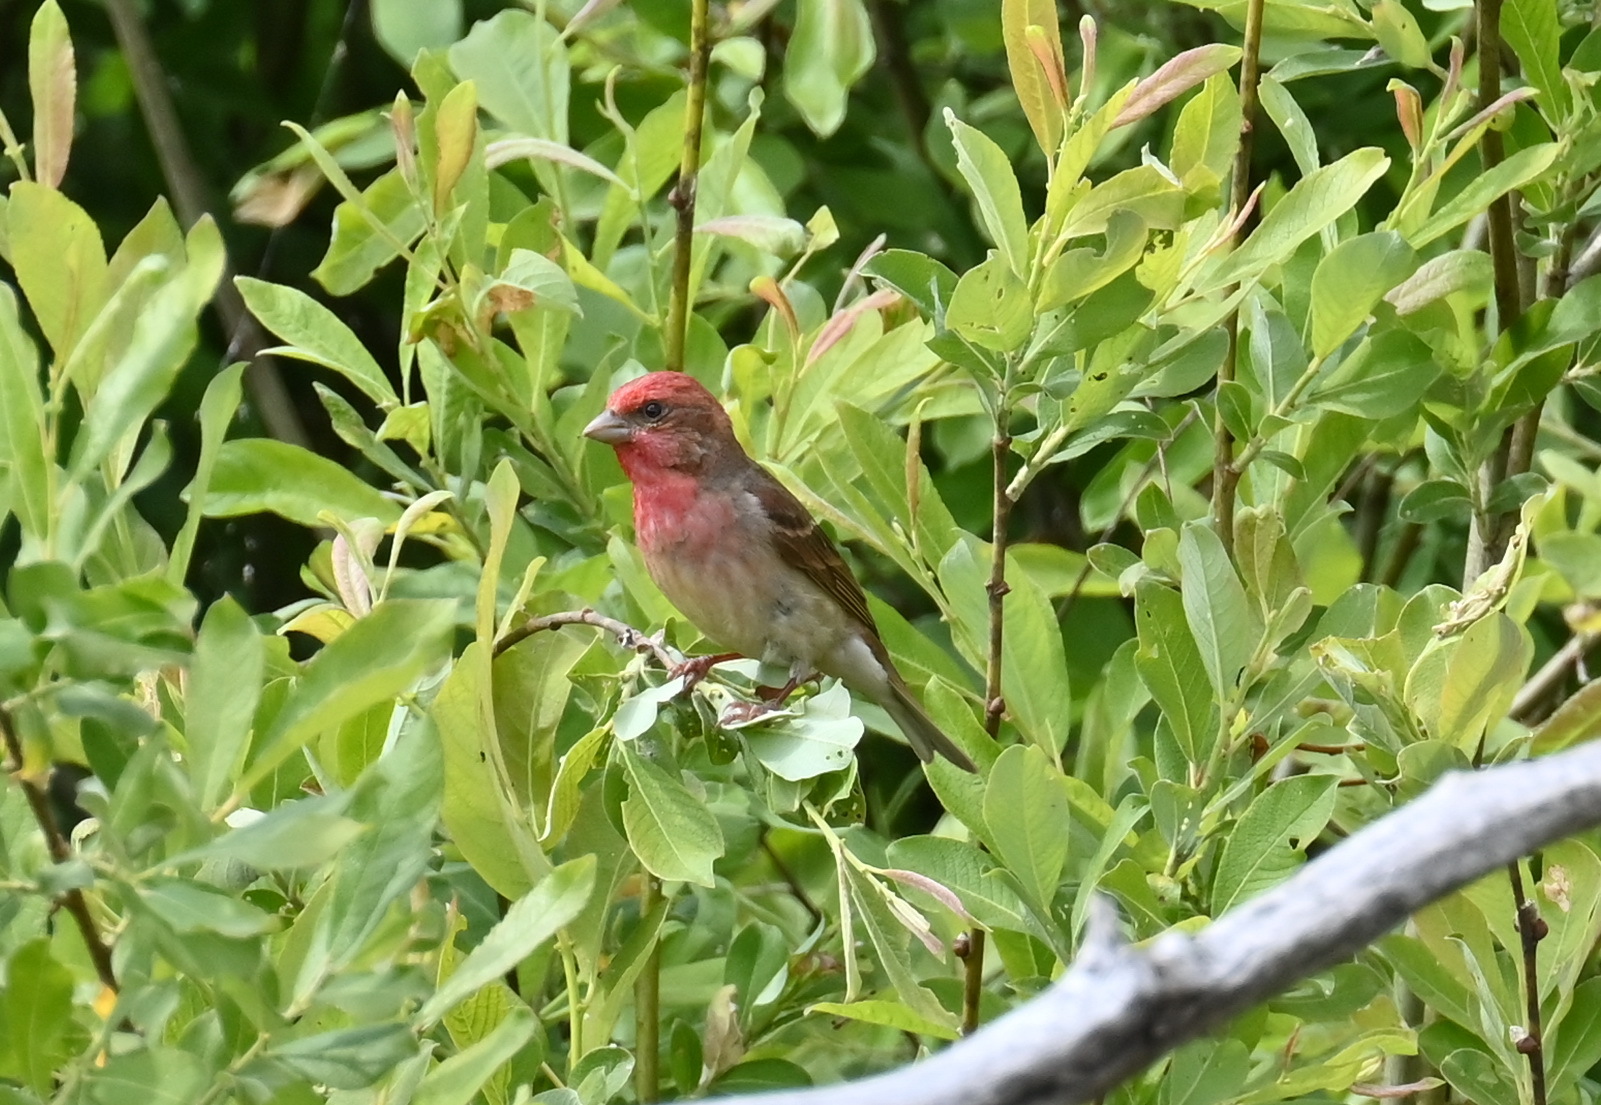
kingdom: Animalia
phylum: Chordata
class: Aves
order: Passeriformes
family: Fringillidae
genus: Carpodacus
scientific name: Carpodacus erythrinus
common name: Common rosefinch
